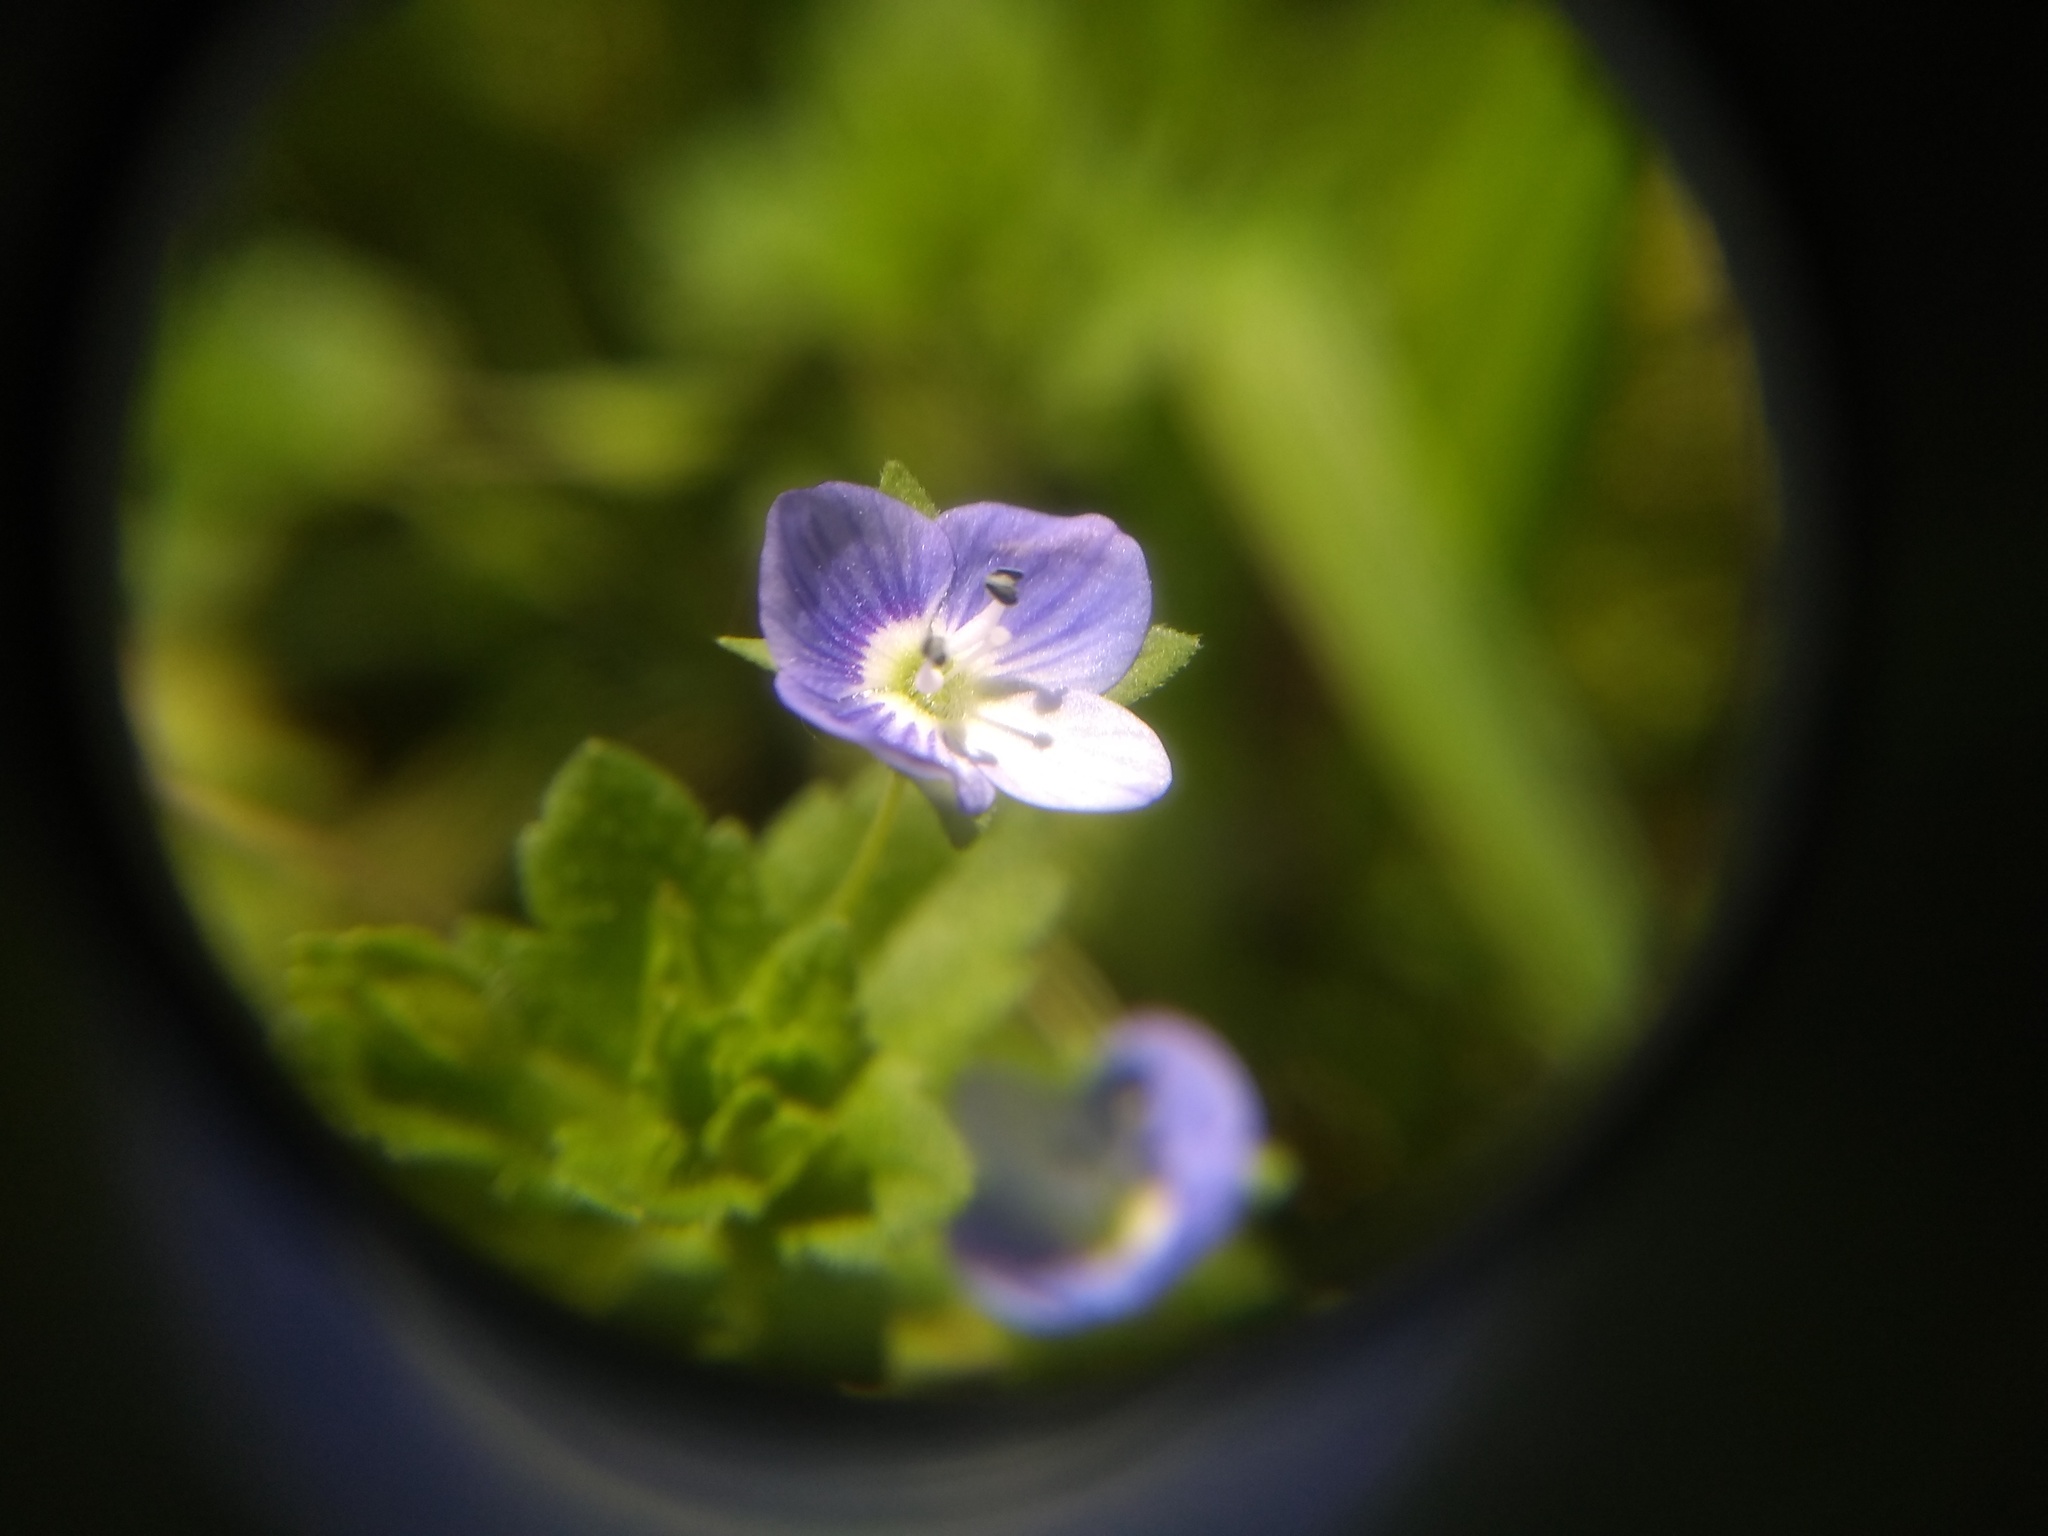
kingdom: Plantae
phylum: Tracheophyta
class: Magnoliopsida
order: Lamiales
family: Plantaginaceae
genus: Veronica
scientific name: Veronica persica
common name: Common field-speedwell
